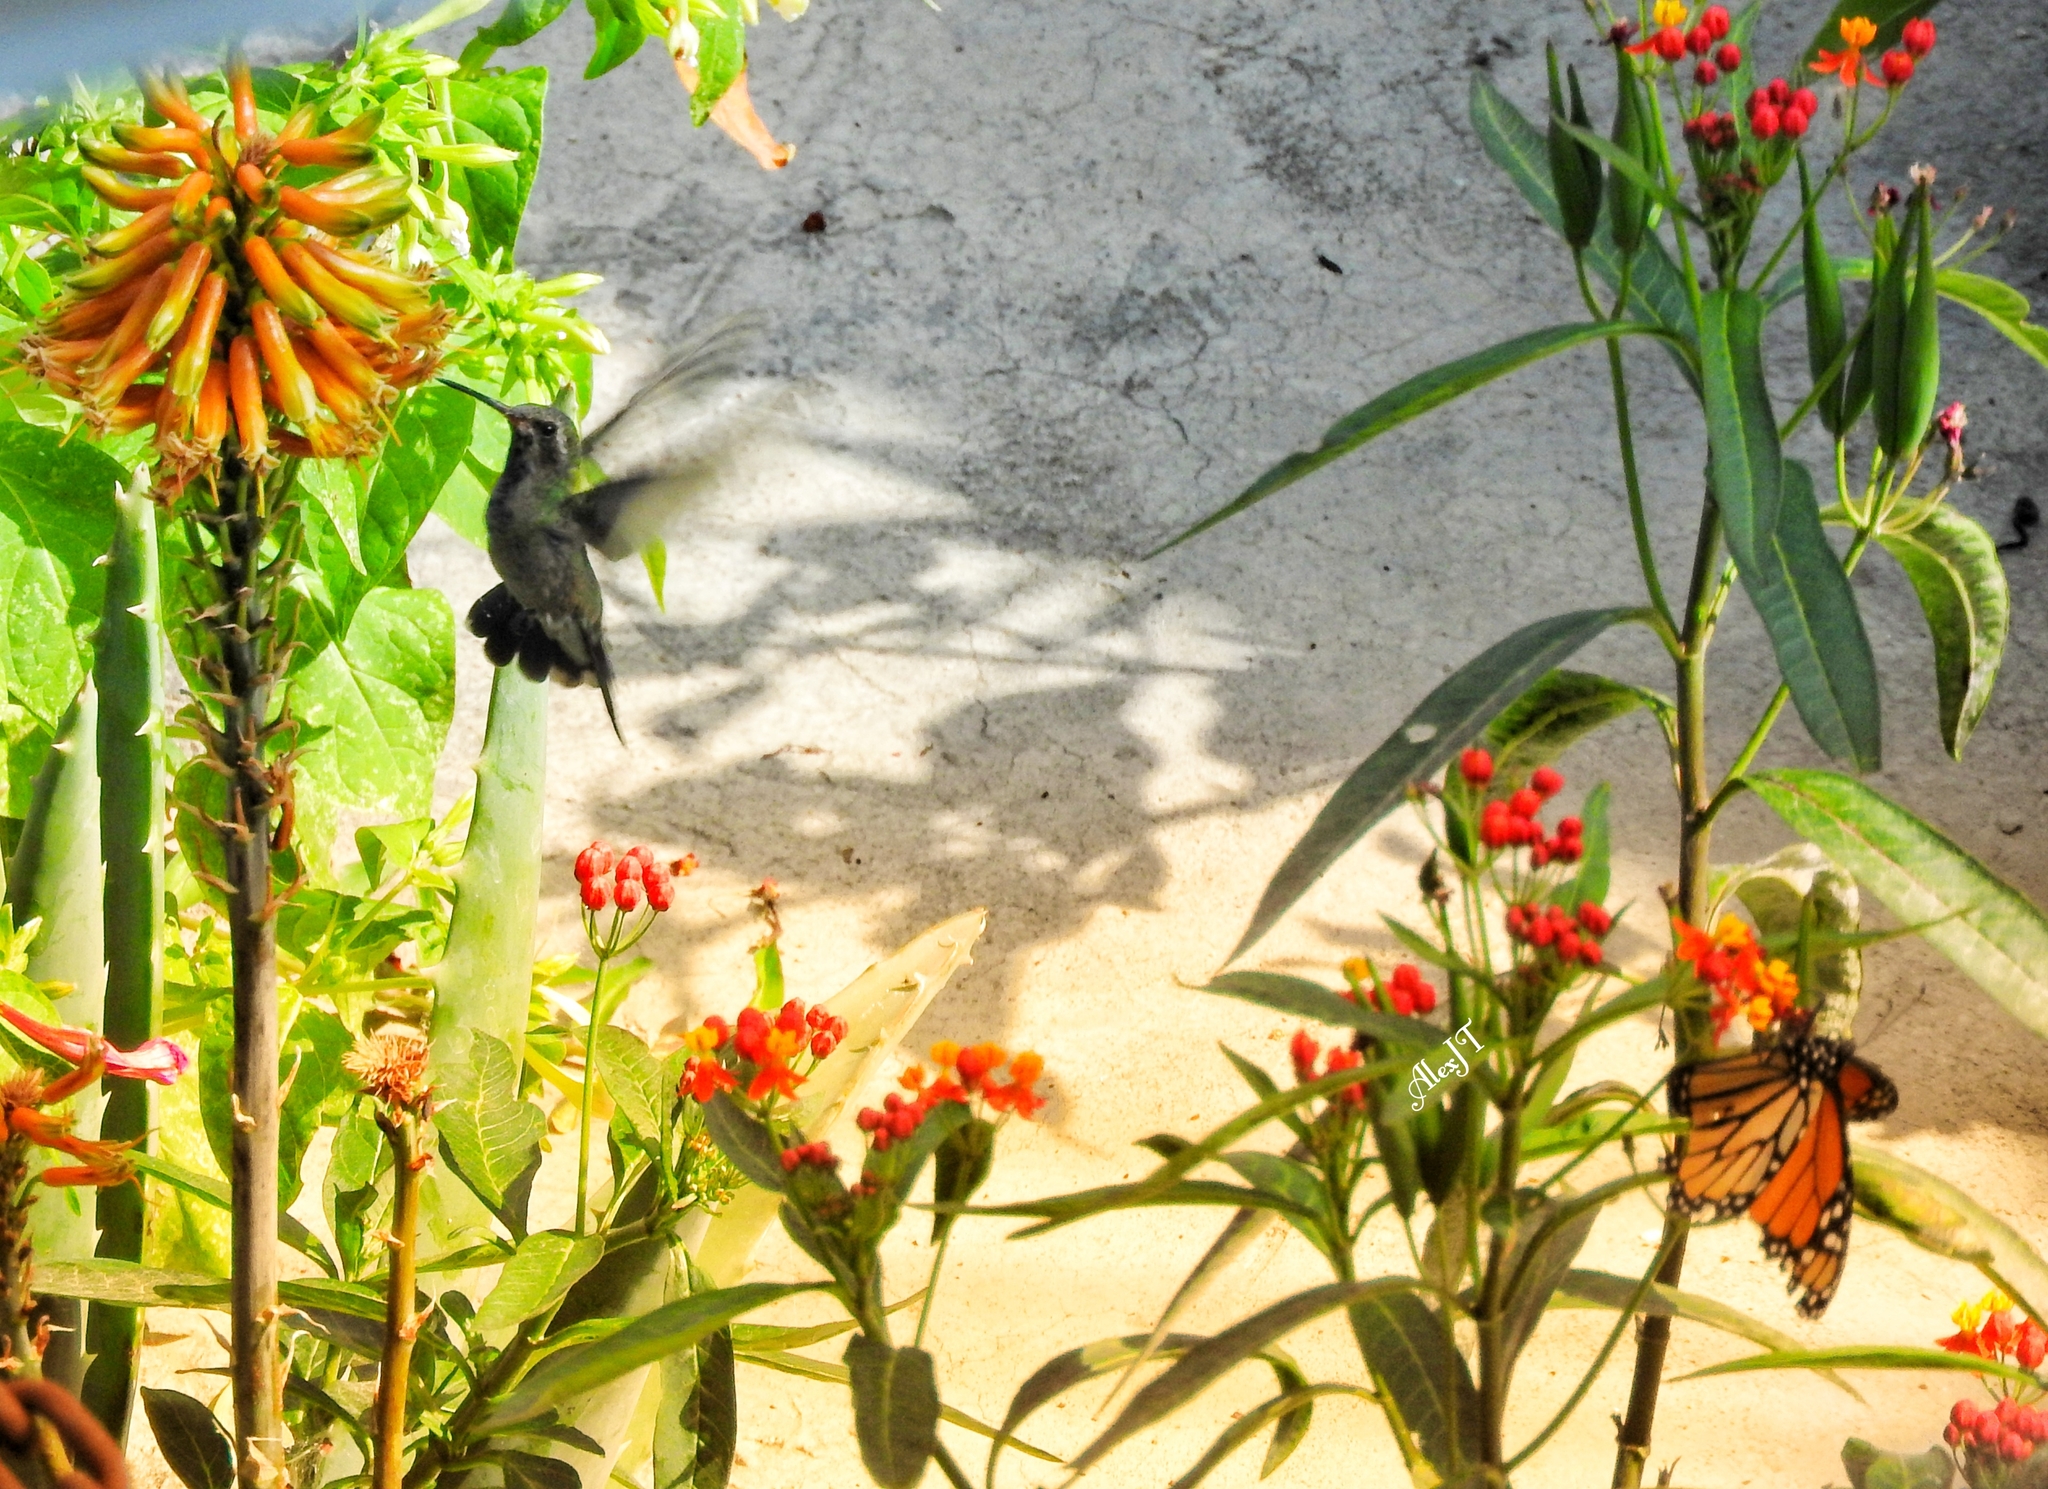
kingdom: Animalia
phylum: Chordata
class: Aves
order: Apodiformes
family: Trochilidae
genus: Cynanthus
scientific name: Cynanthus latirostris
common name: Broad-billed hummingbird
